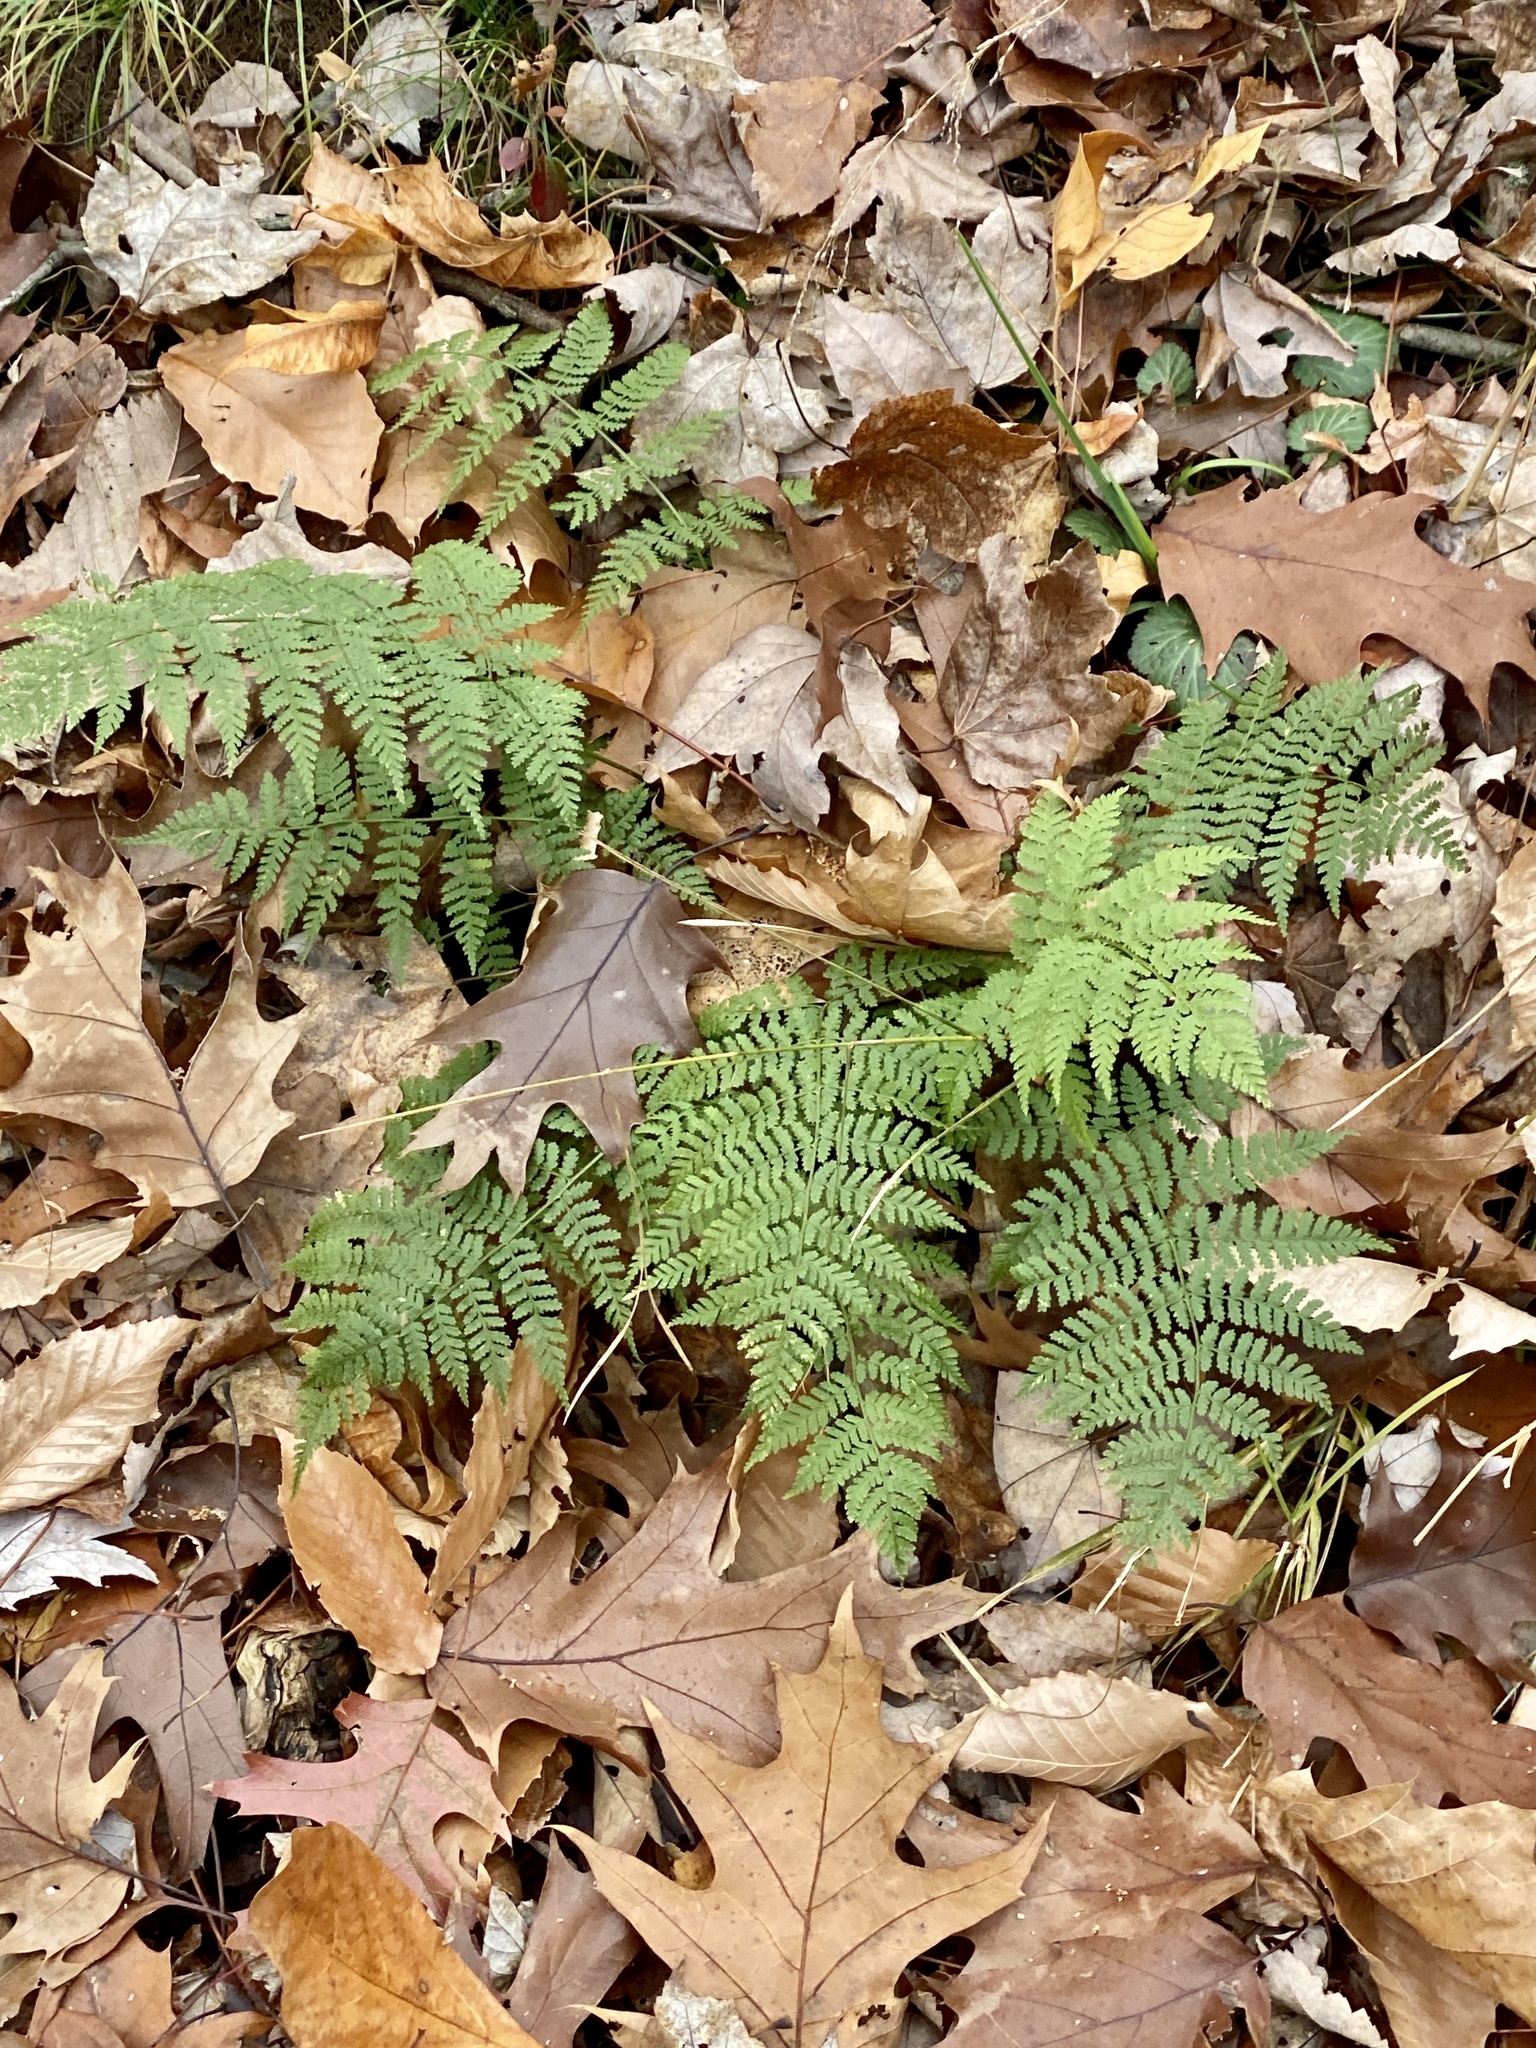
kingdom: Plantae
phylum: Tracheophyta
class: Polypodiopsida
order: Polypodiales
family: Dryopteridaceae
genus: Dryopteris
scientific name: Dryopteris intermedia
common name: Evergreen wood fern
